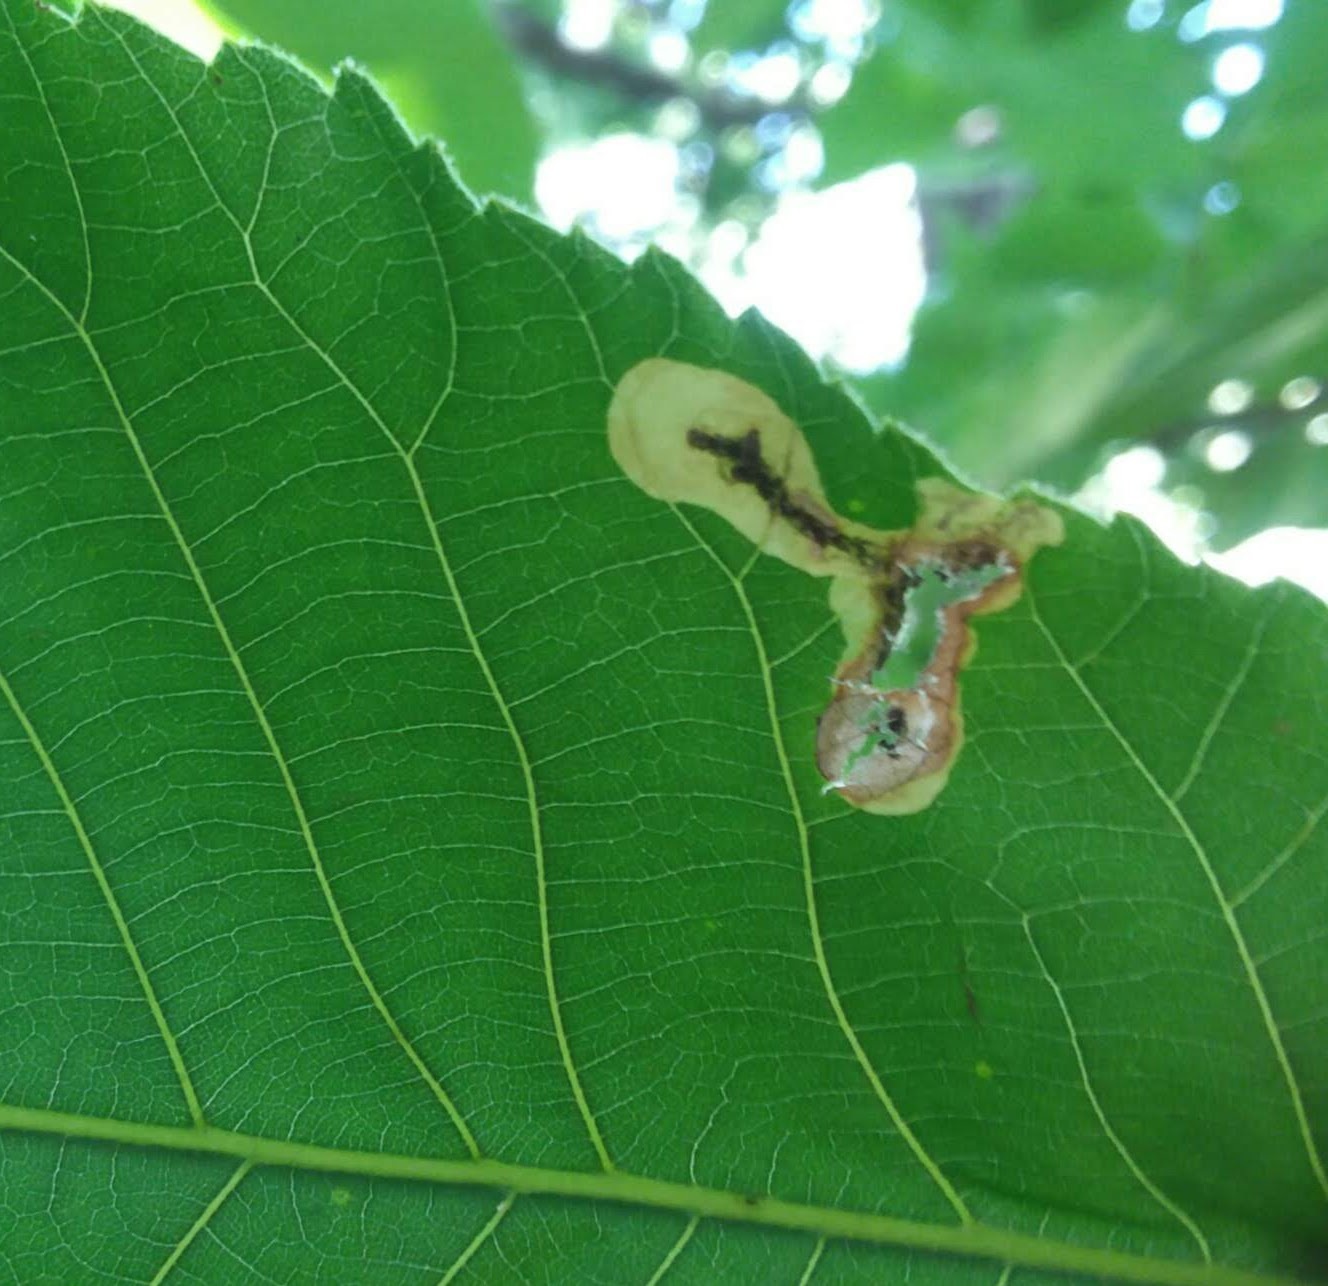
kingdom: Animalia
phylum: Arthropoda
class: Insecta
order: Lepidoptera
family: Gracillariidae
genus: Cameraria
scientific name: Cameraria ulmella
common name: Elm leafminer
